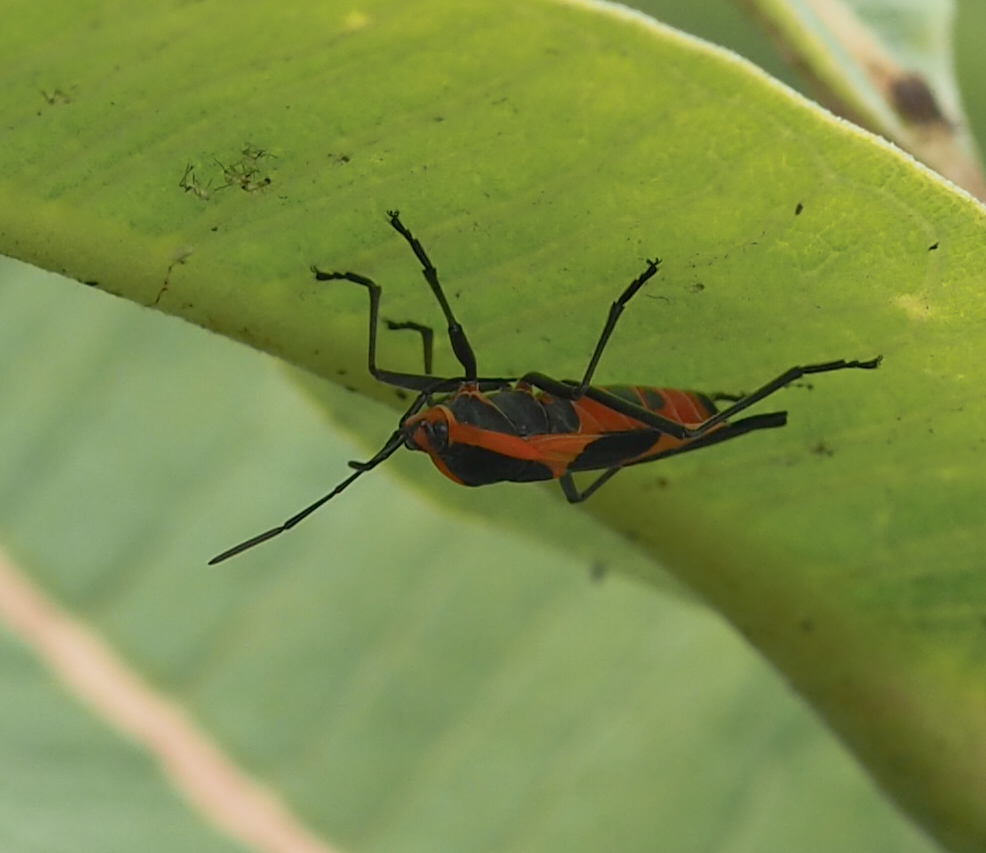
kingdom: Animalia
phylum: Arthropoda
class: Insecta
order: Hemiptera
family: Lygaeidae
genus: Oncopeltus
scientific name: Oncopeltus fasciatus
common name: Large milkweed bug
